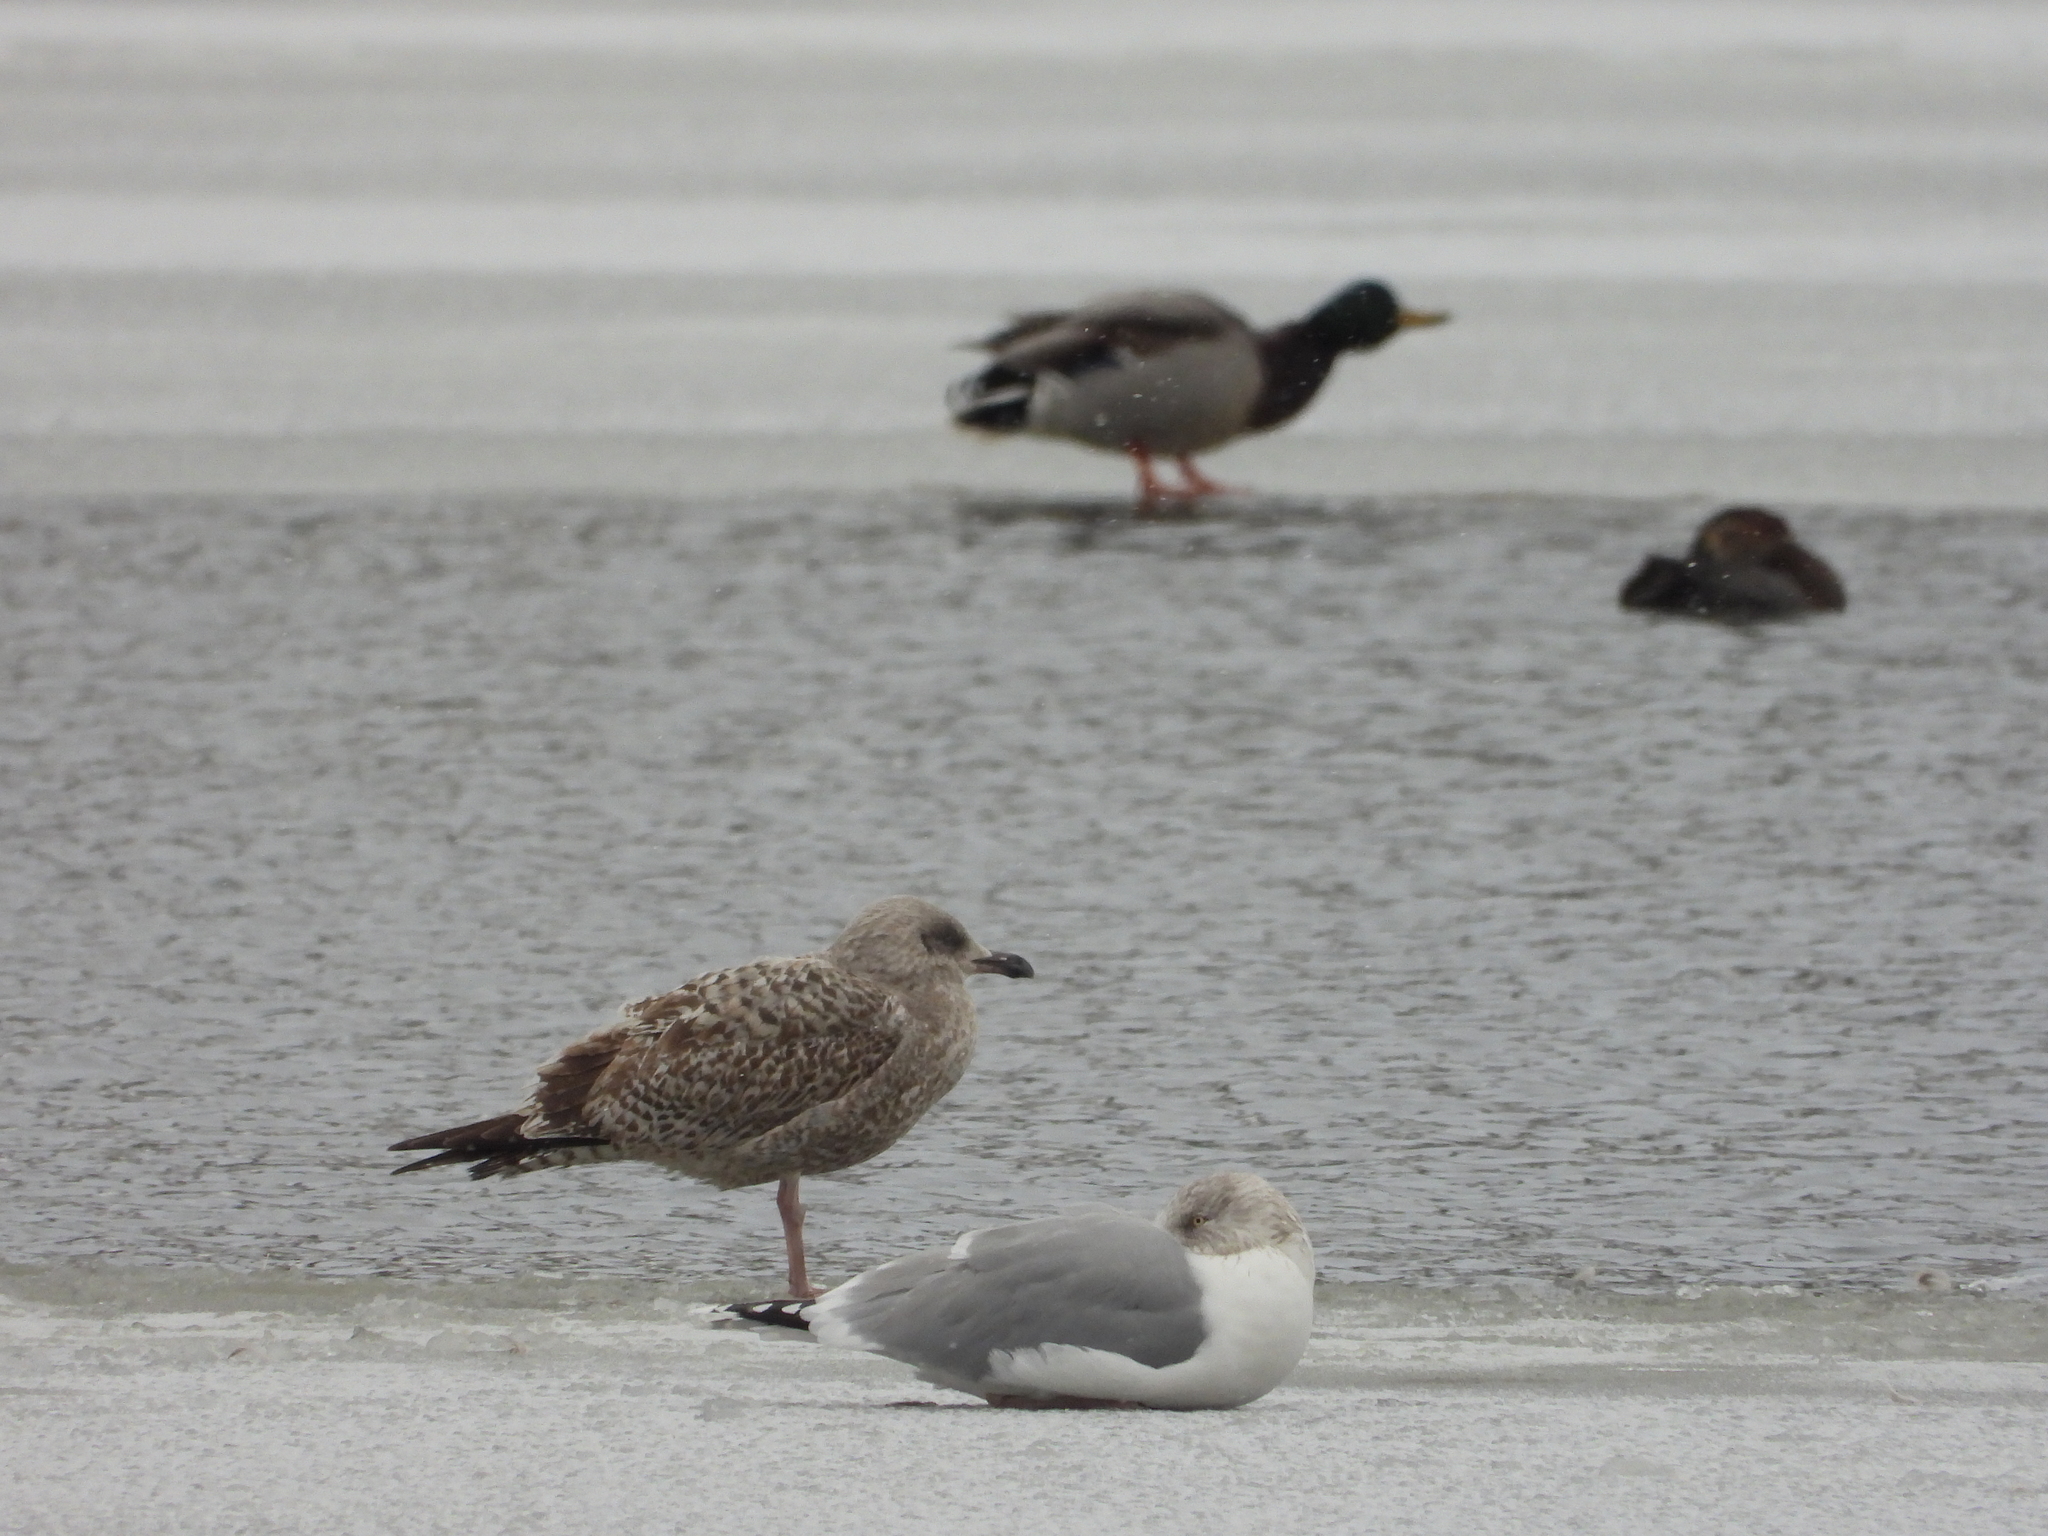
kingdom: Animalia
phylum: Chordata
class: Aves
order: Charadriiformes
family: Laridae
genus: Larus
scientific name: Larus argentatus
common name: Herring gull
